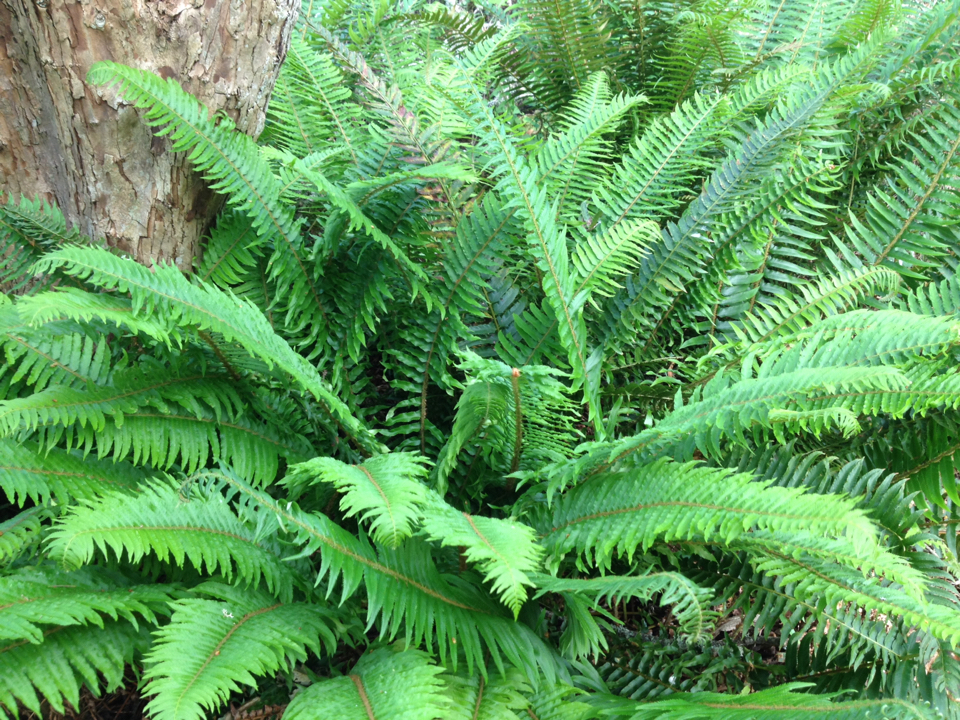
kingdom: Plantae
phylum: Tracheophyta
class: Polypodiopsida
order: Polypodiales
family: Dryopteridaceae
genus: Polystichum
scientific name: Polystichum munitum
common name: Western sword-fern
